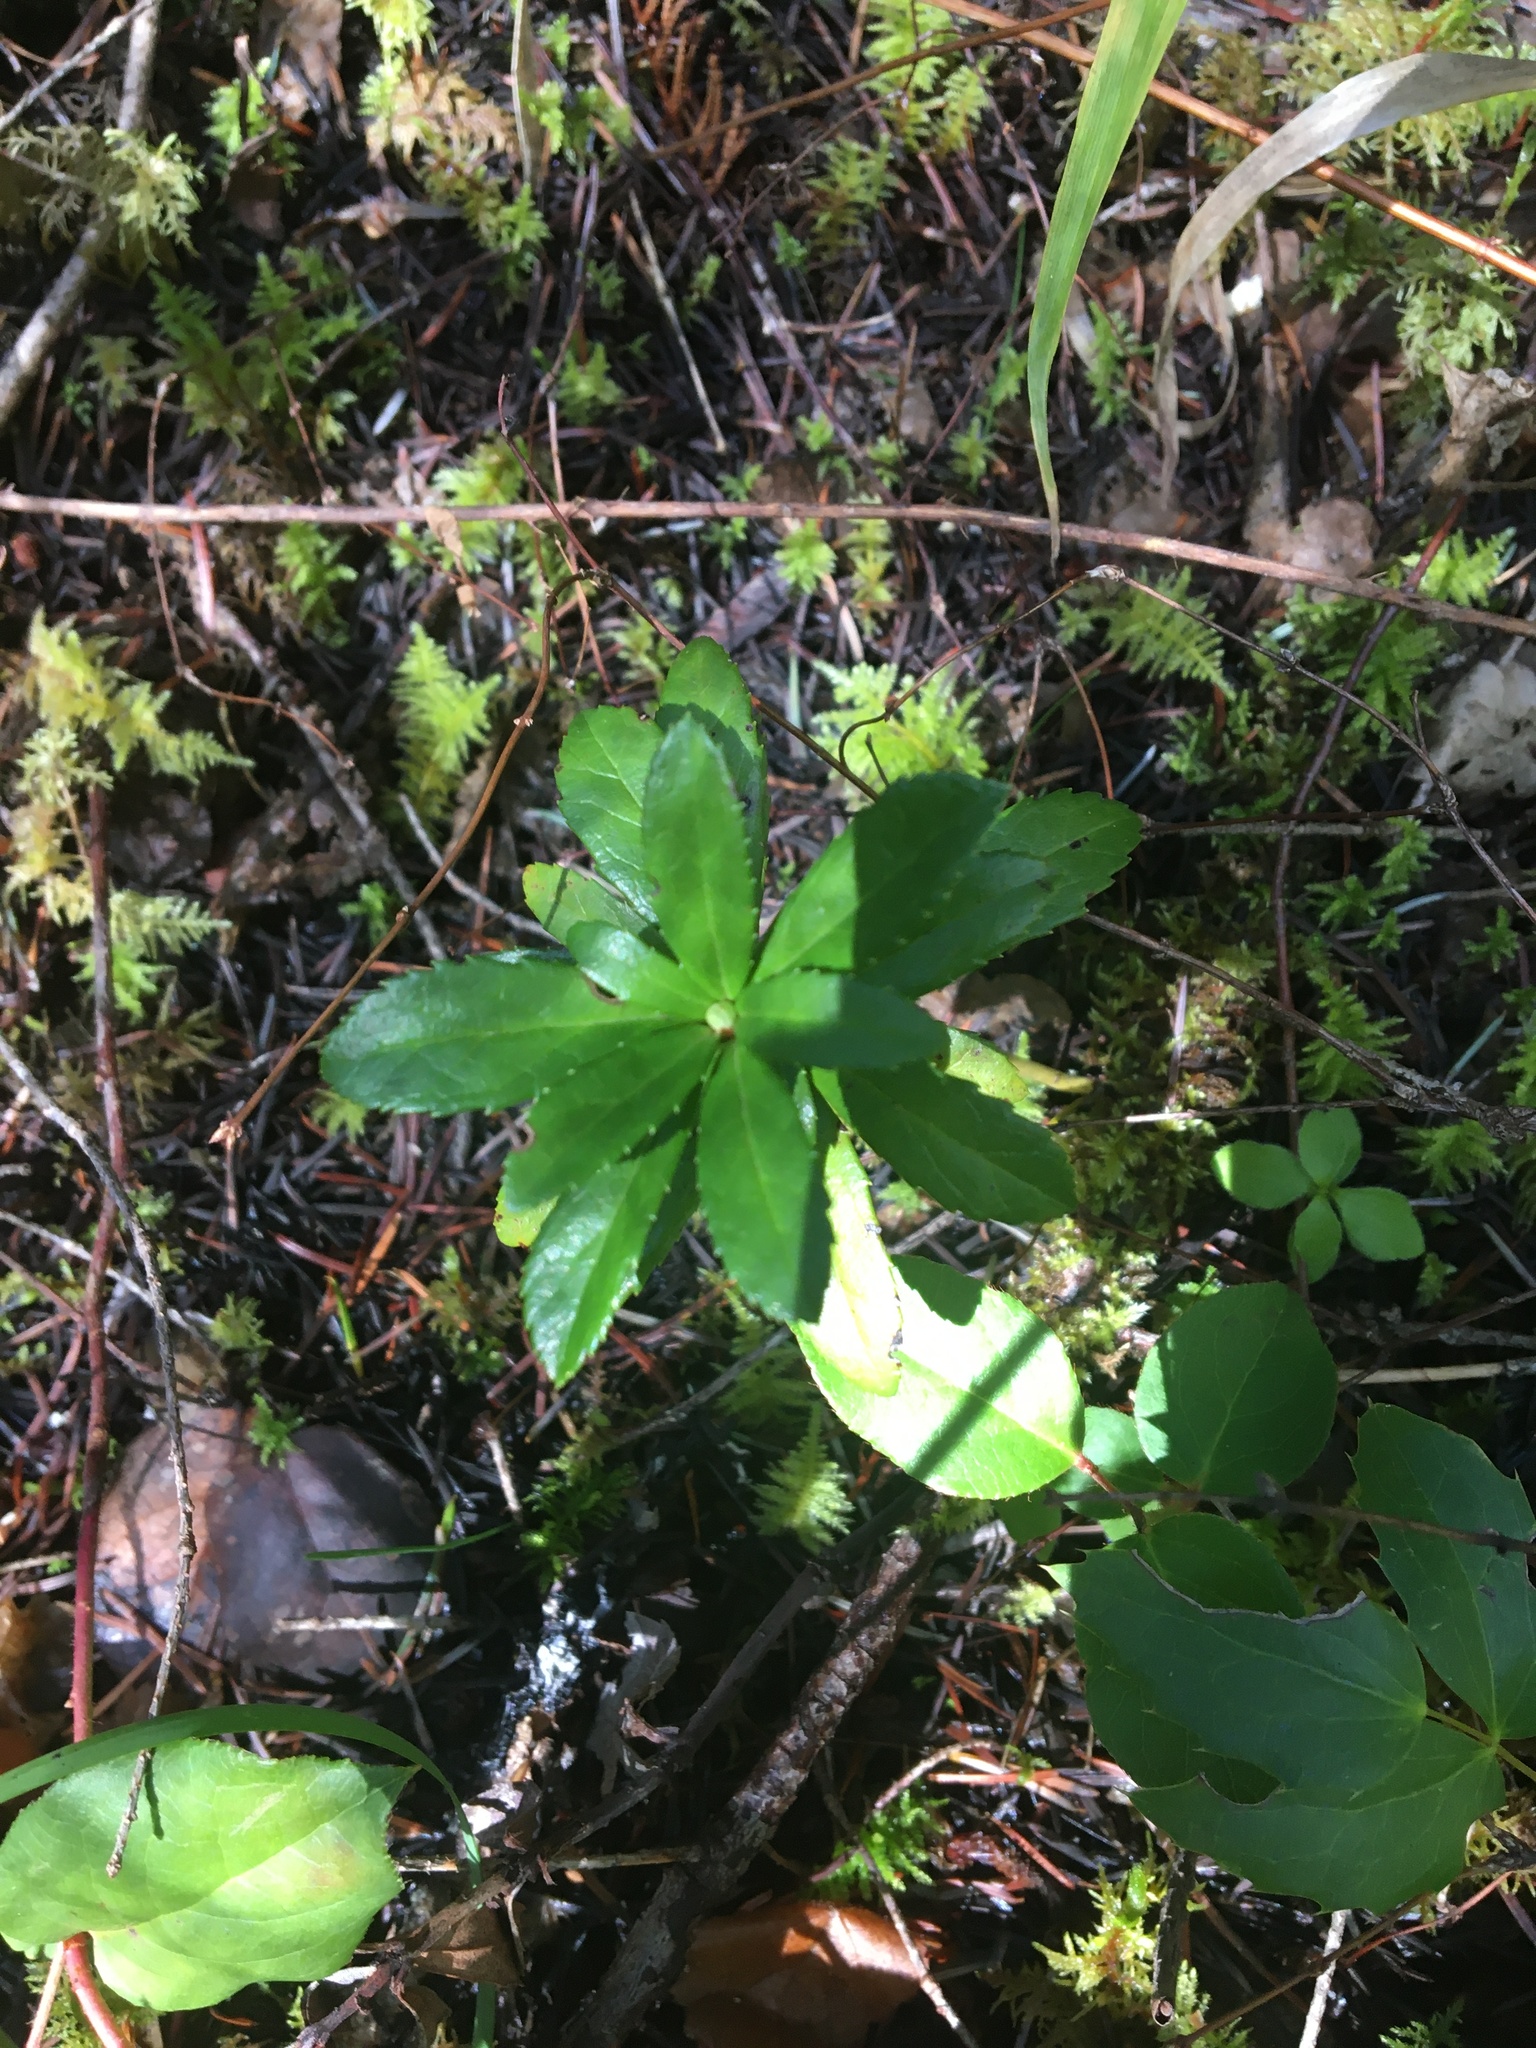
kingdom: Plantae
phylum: Tracheophyta
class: Magnoliopsida
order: Ericales
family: Ericaceae
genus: Chimaphila
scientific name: Chimaphila umbellata
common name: Pipsissewa
